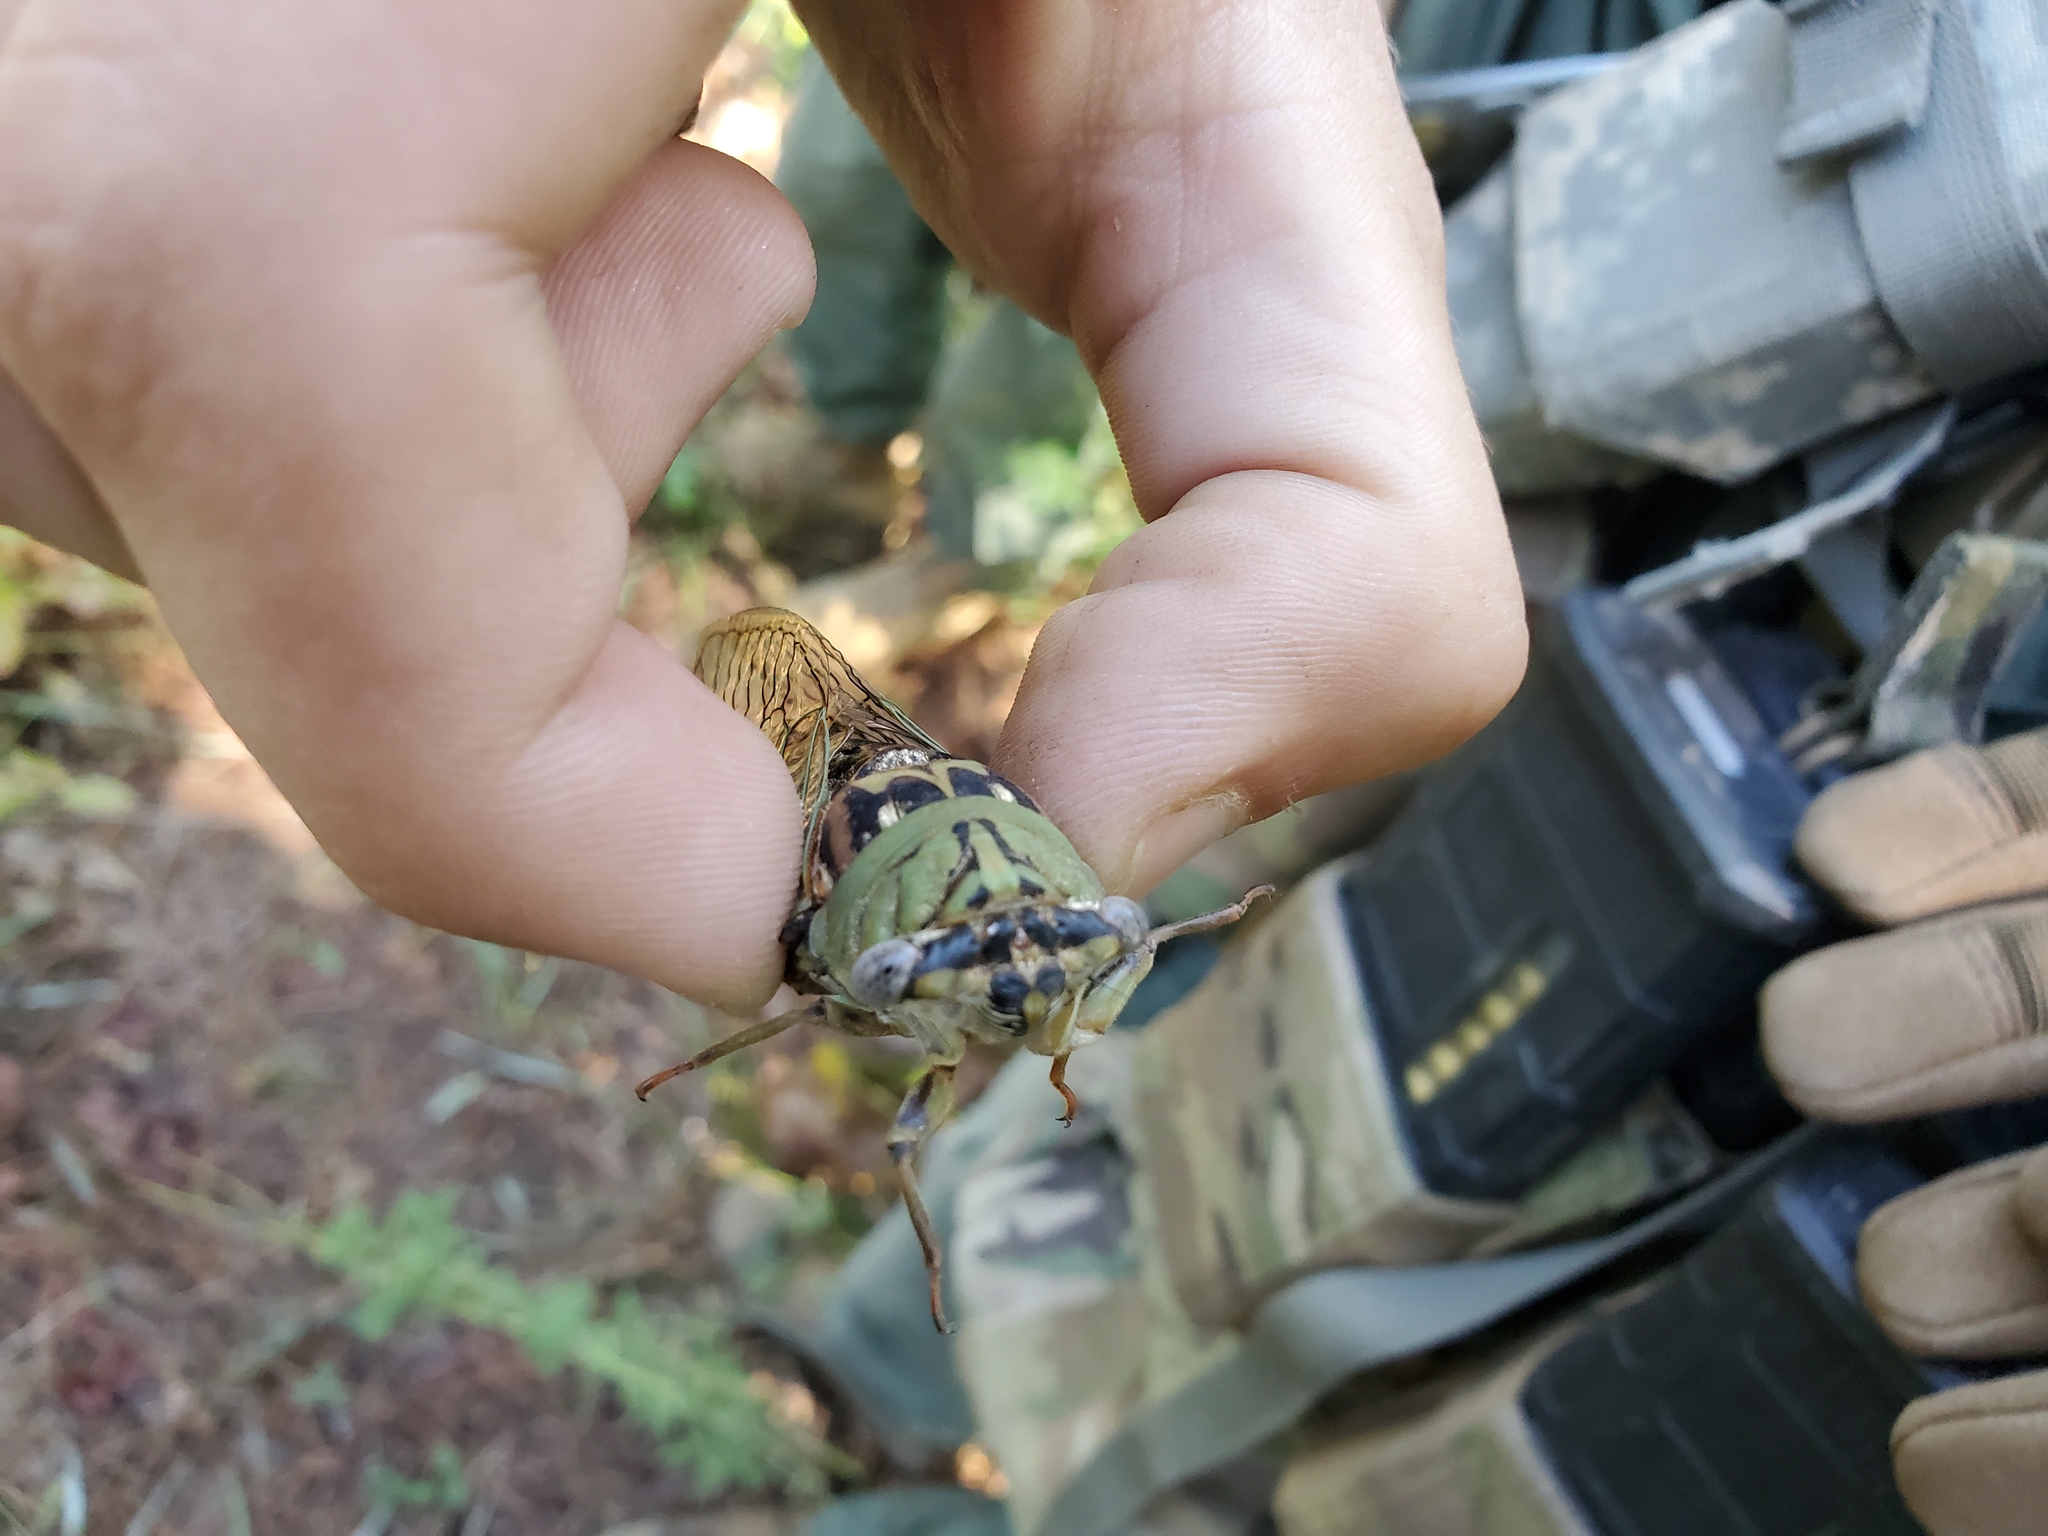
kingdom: Animalia
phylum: Arthropoda
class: Insecta
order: Hemiptera
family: Cicadidae
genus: Megatibicen
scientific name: Megatibicen resh
